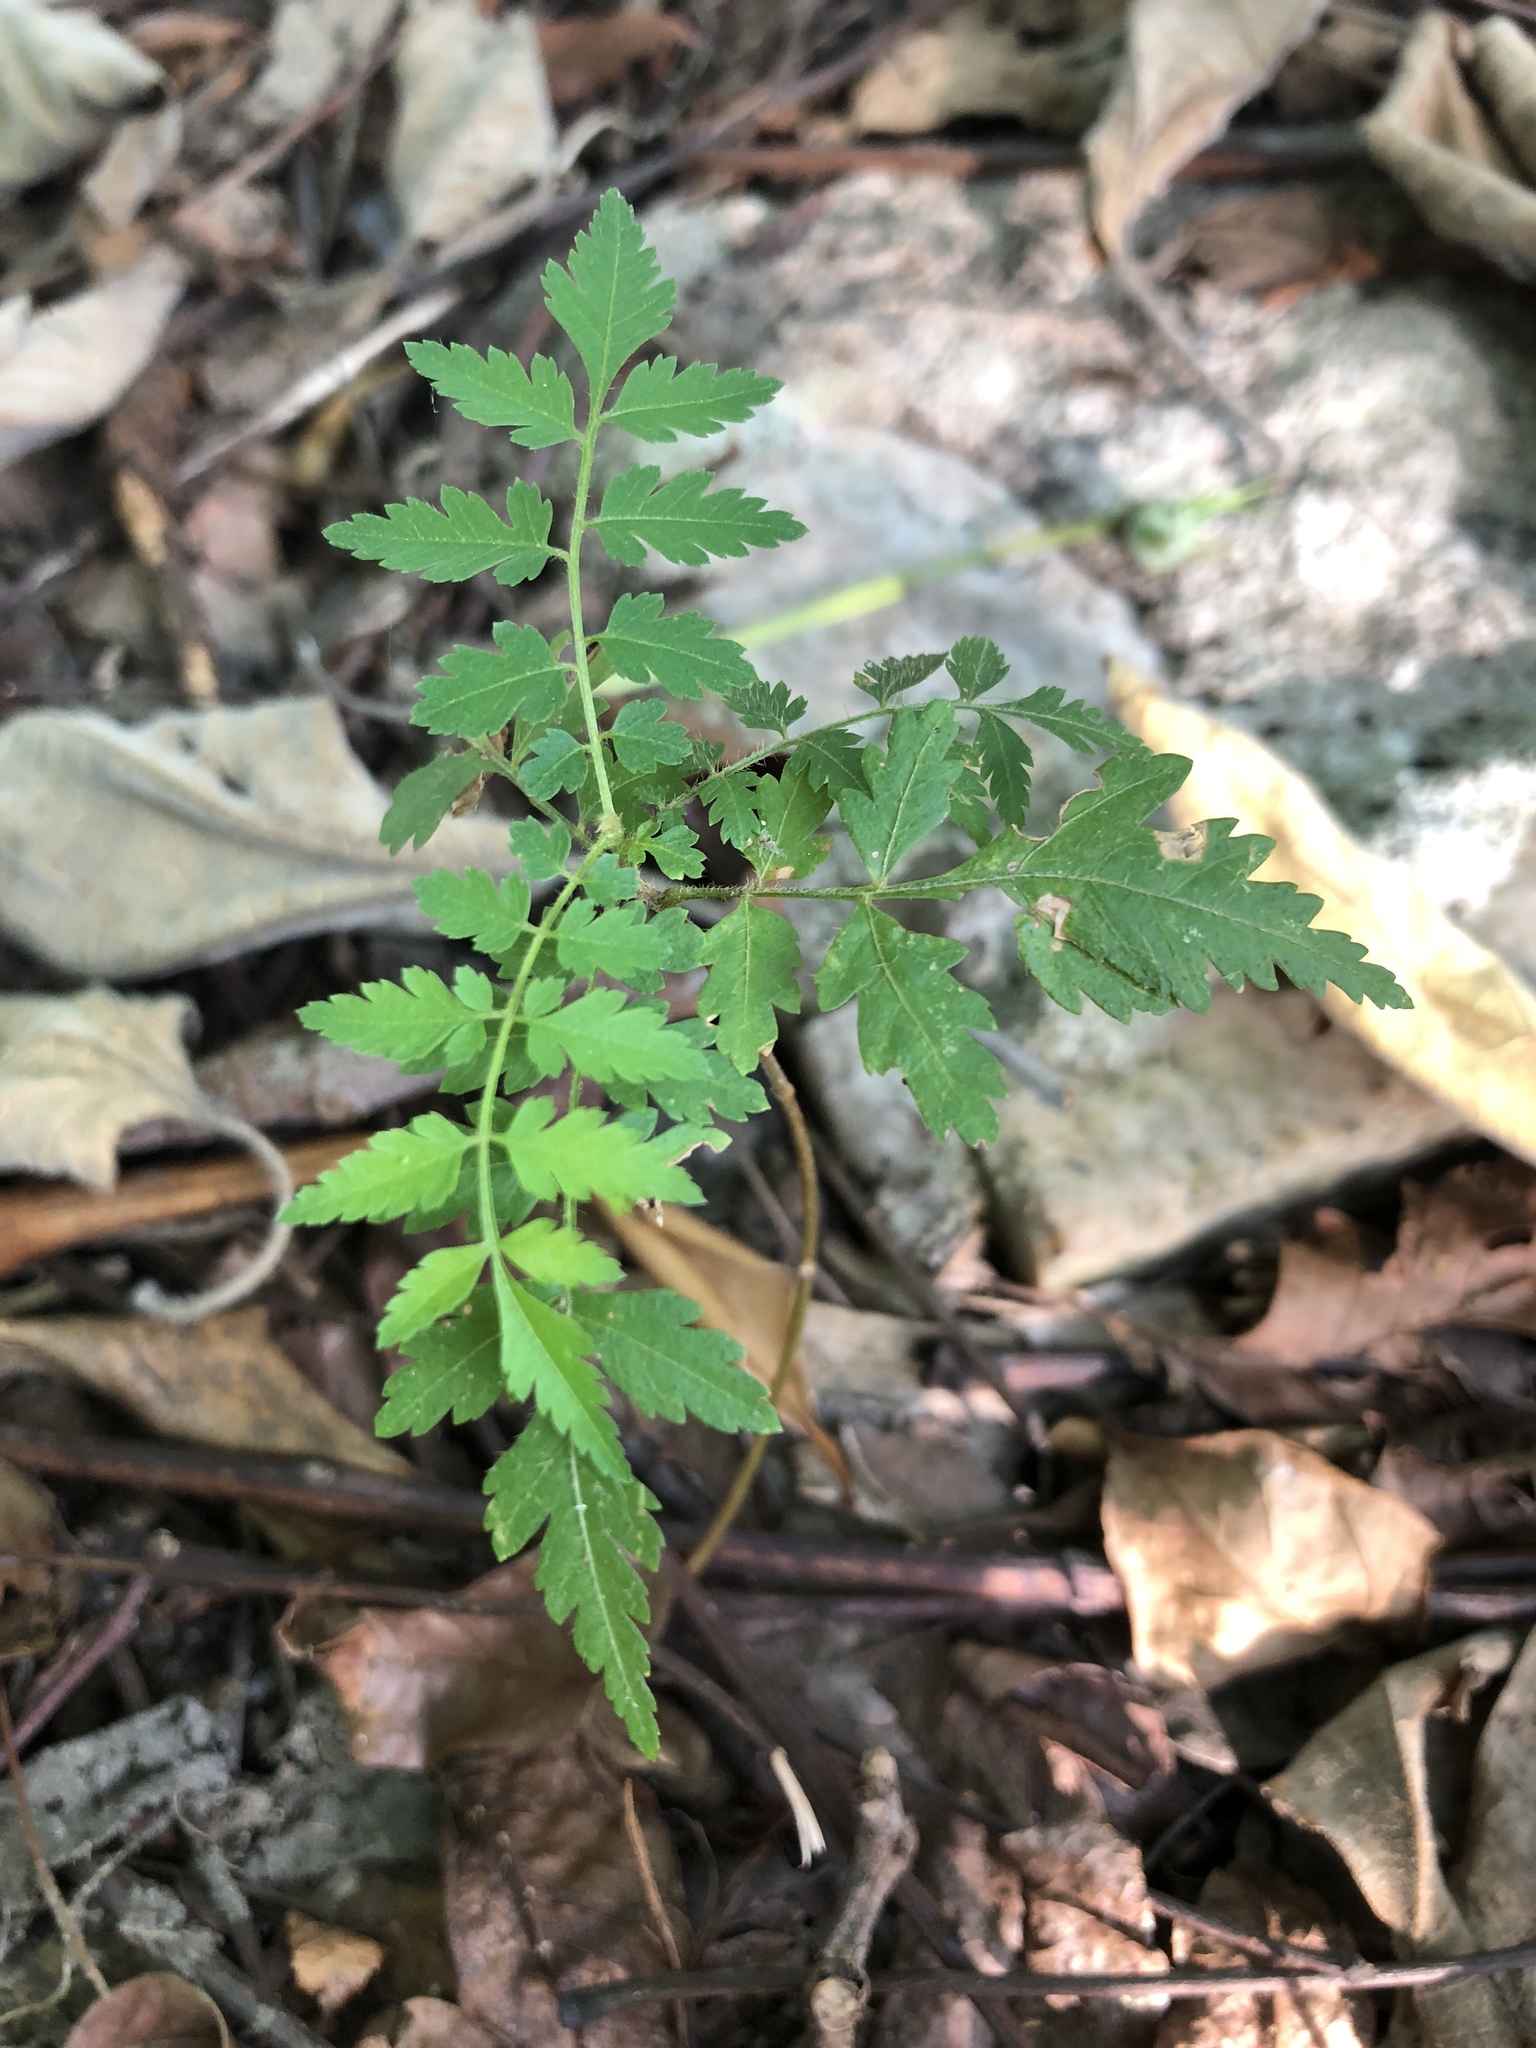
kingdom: Plantae
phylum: Tracheophyta
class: Magnoliopsida
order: Sapindales
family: Sapindaceae
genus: Koelreuteria
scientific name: Koelreuteria elegans
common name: Chinese flame tree
